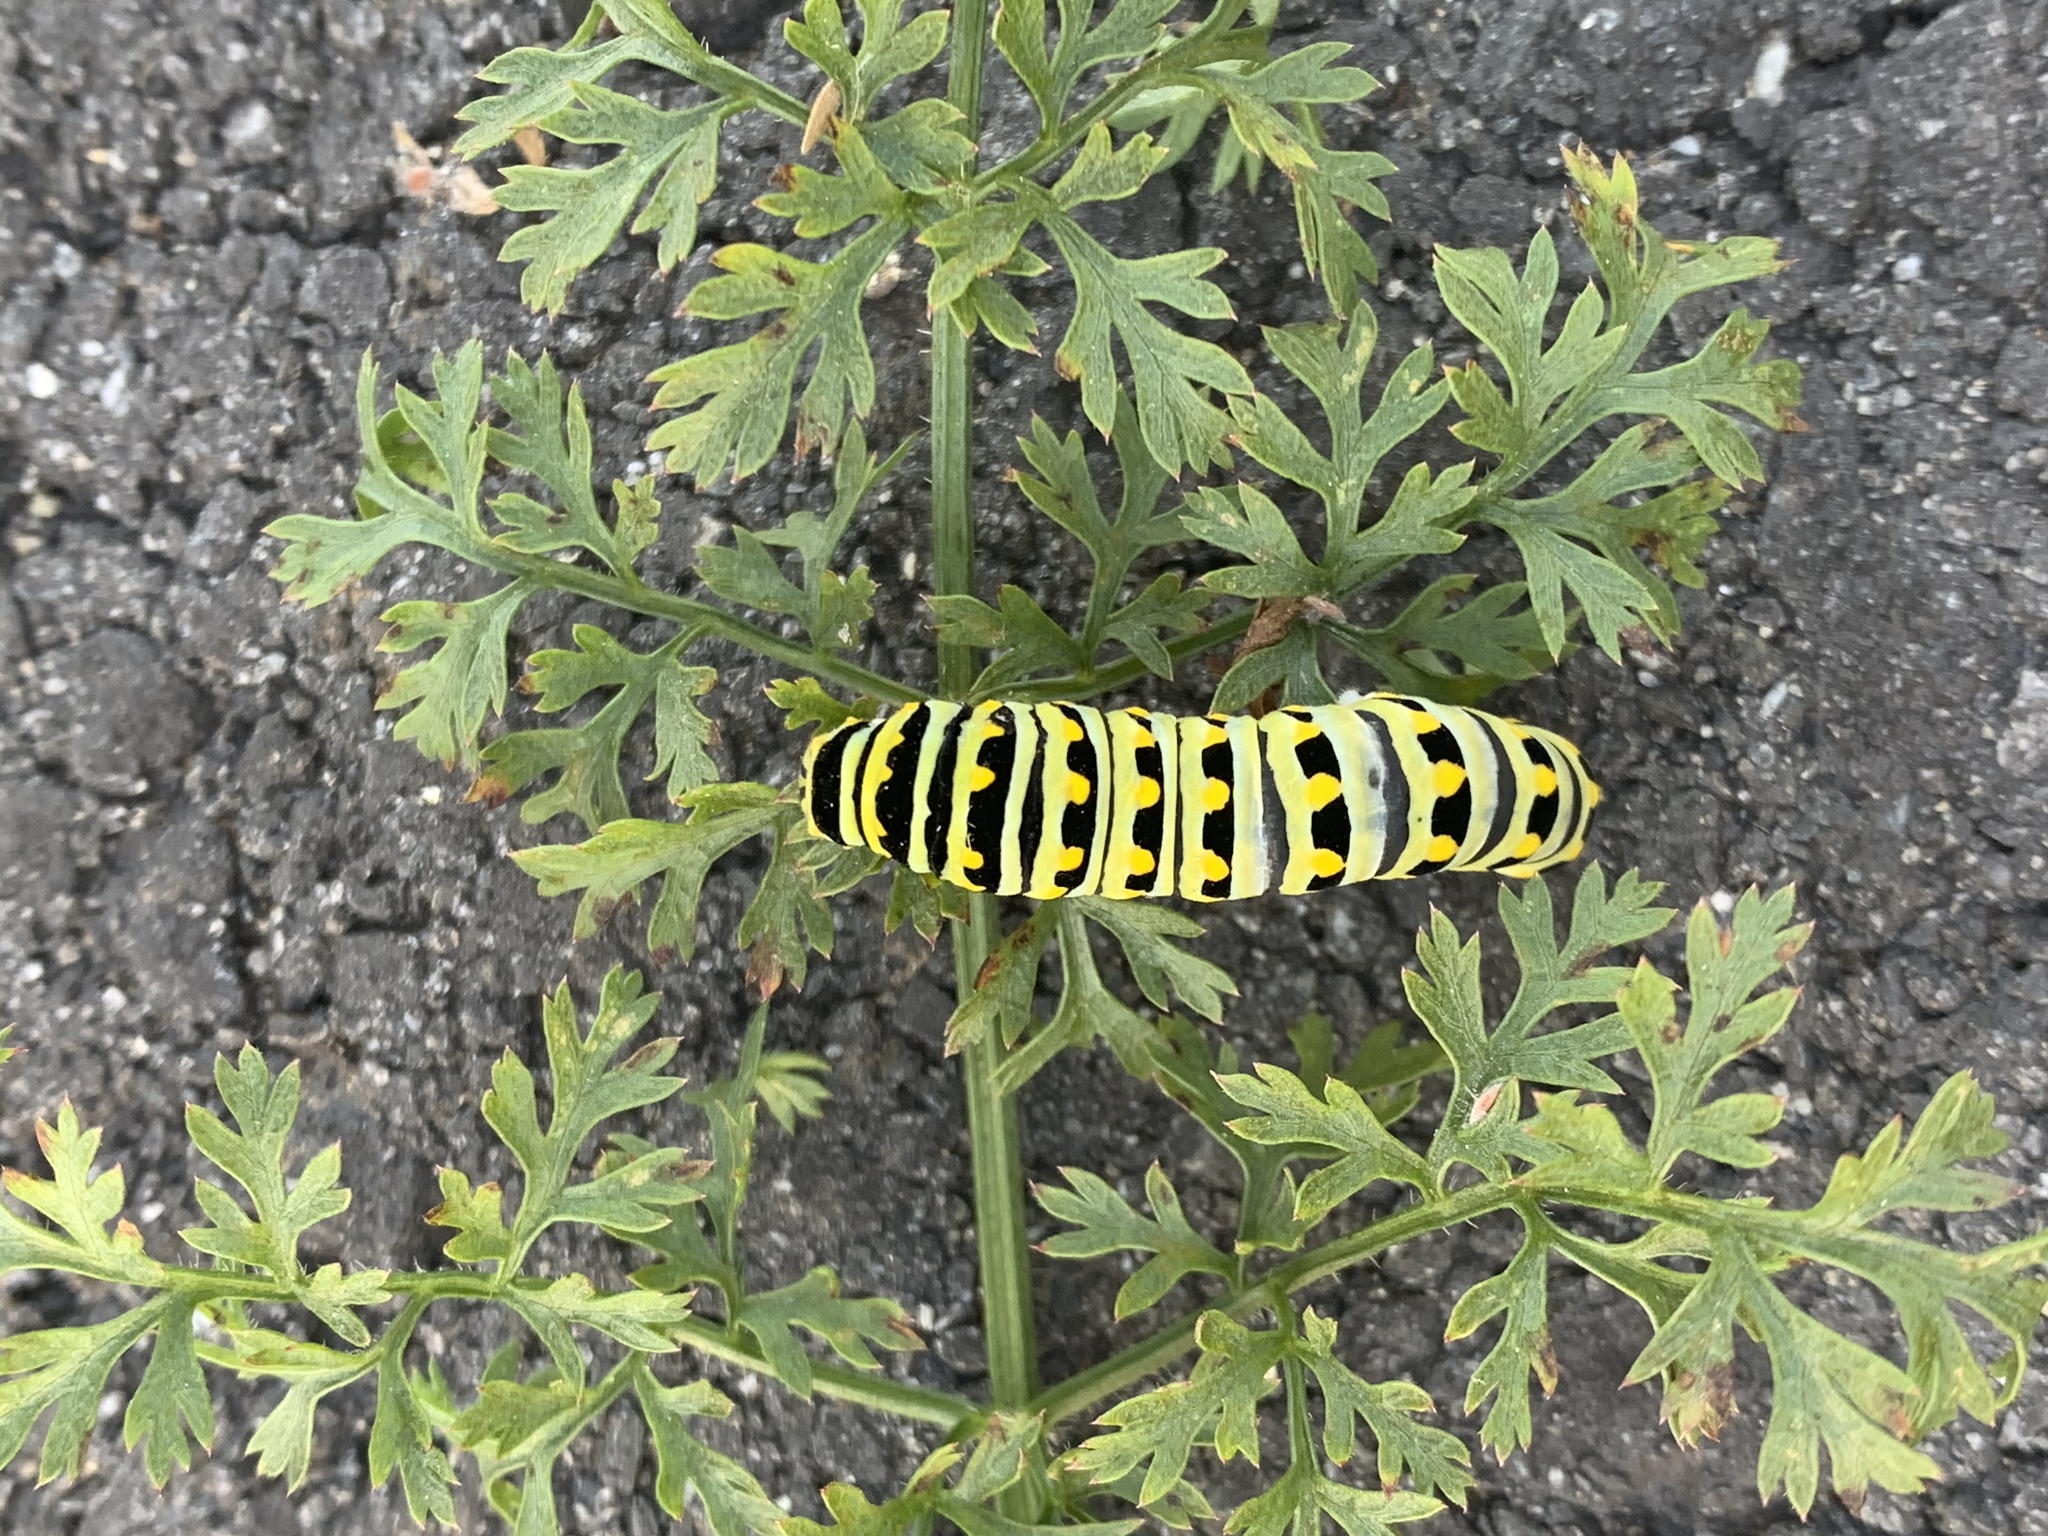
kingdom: Animalia
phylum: Arthropoda
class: Insecta
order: Lepidoptera
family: Papilionidae
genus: Papilio
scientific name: Papilio polyxenes
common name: Black swallowtail
